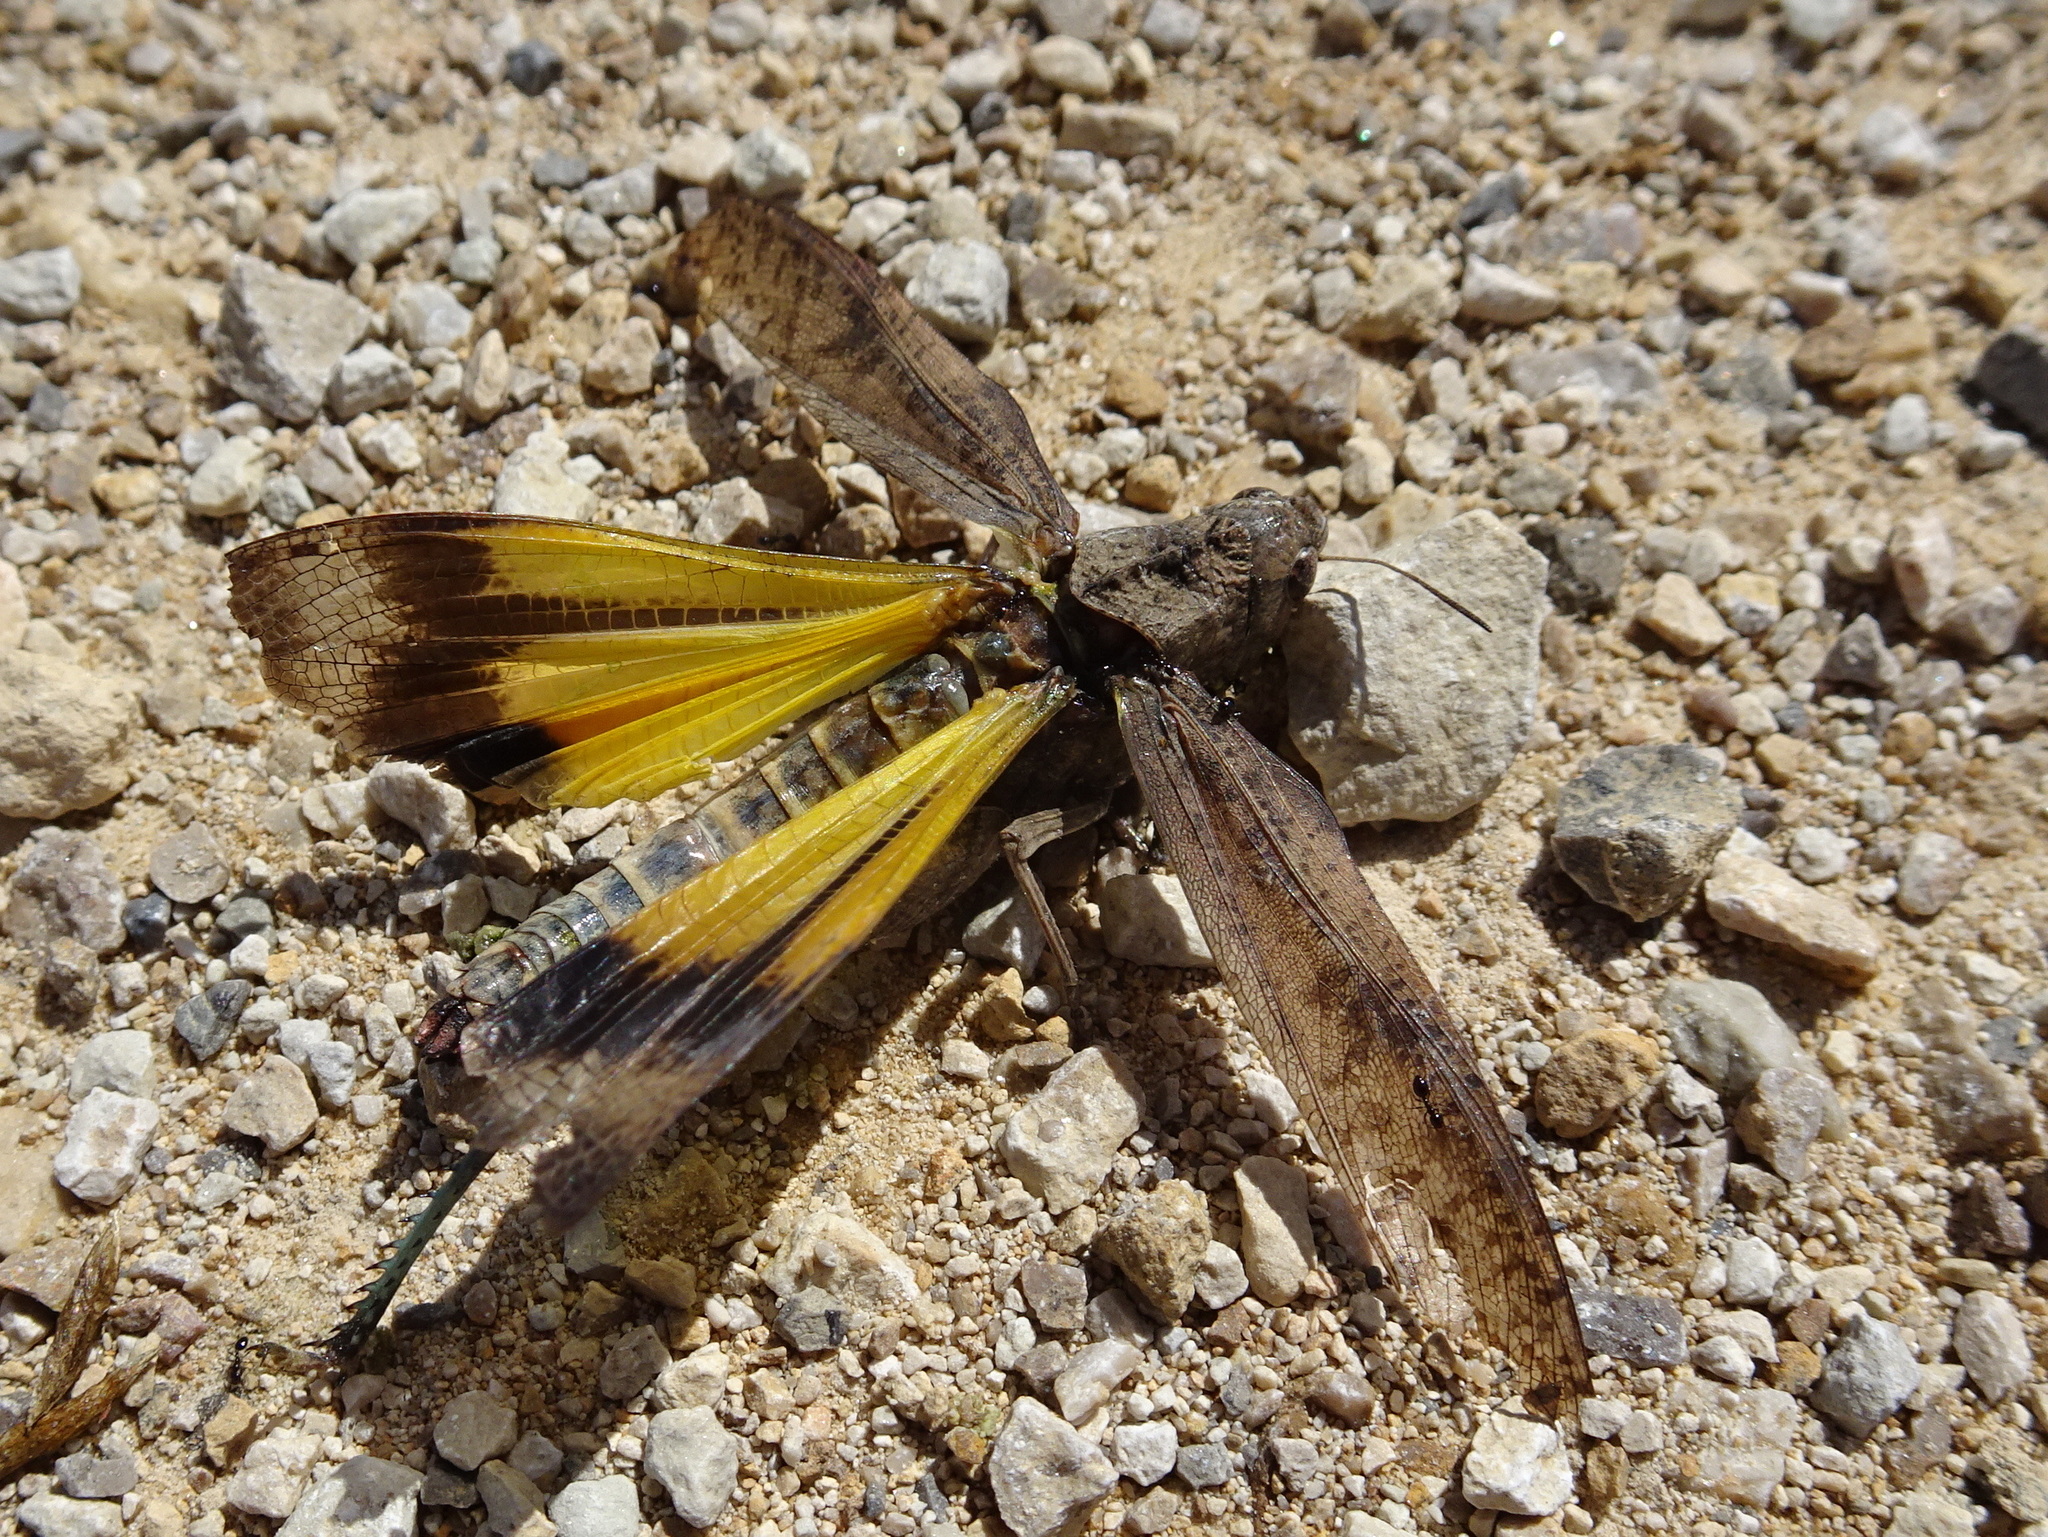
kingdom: Animalia
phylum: Arthropoda
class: Insecta
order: Orthoptera
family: Acrididae
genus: Arphia
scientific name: Arphia simplex
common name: Plains yellow-winged grasshopper
